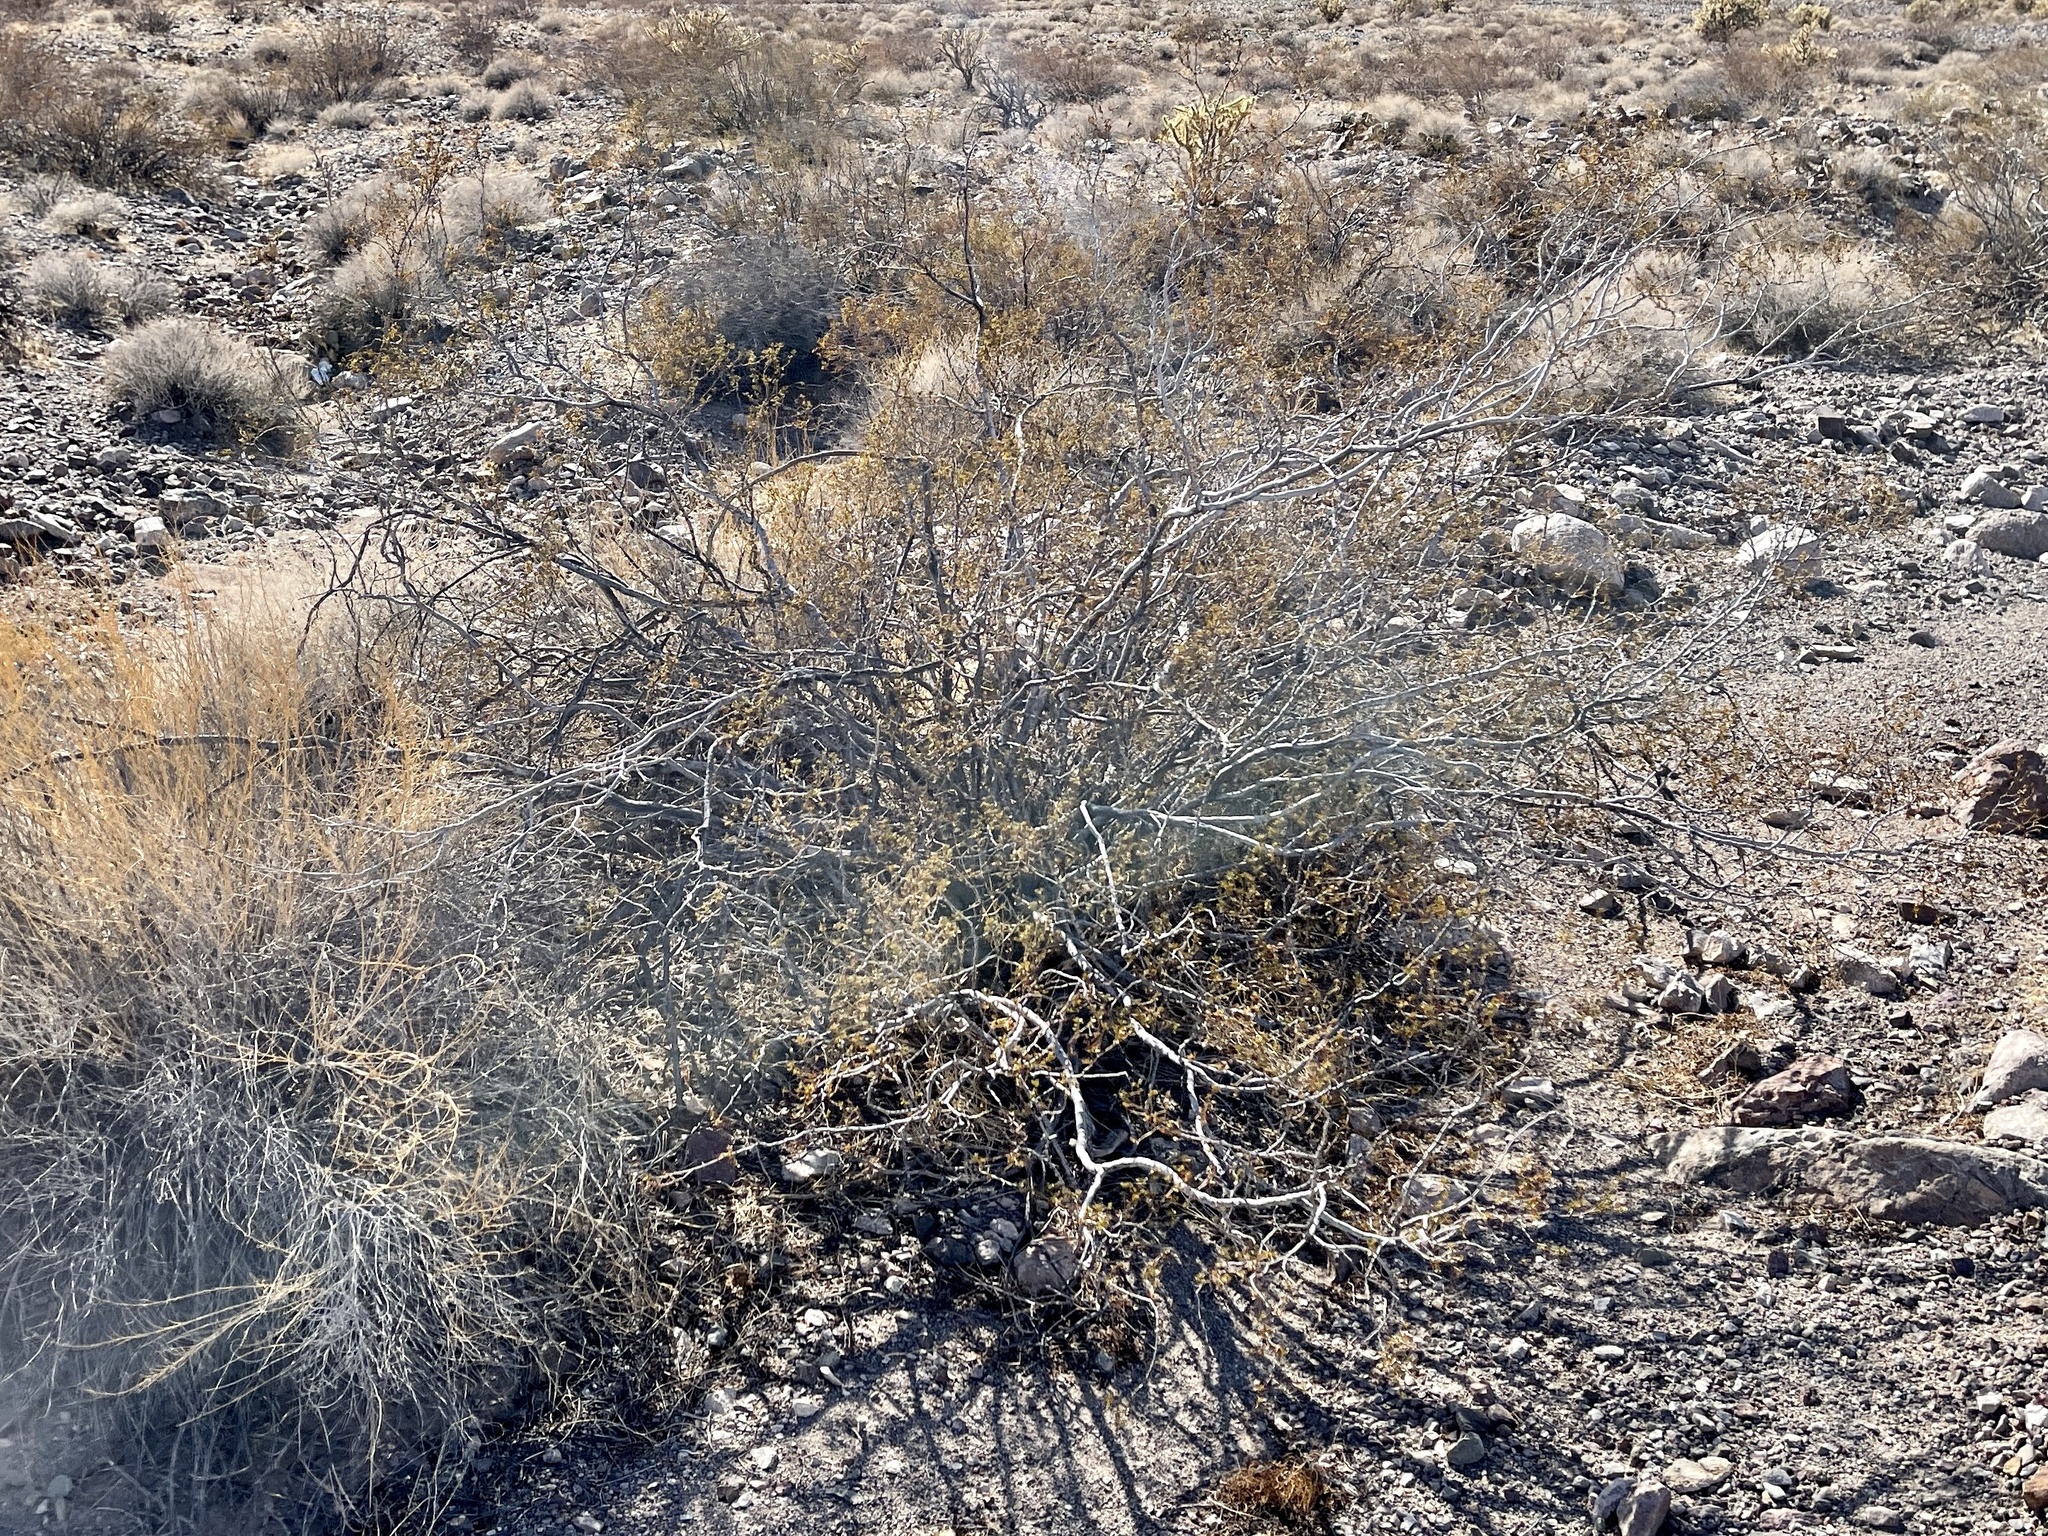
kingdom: Plantae
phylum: Tracheophyta
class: Magnoliopsida
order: Zygophyllales
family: Zygophyllaceae
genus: Larrea
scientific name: Larrea tridentata
